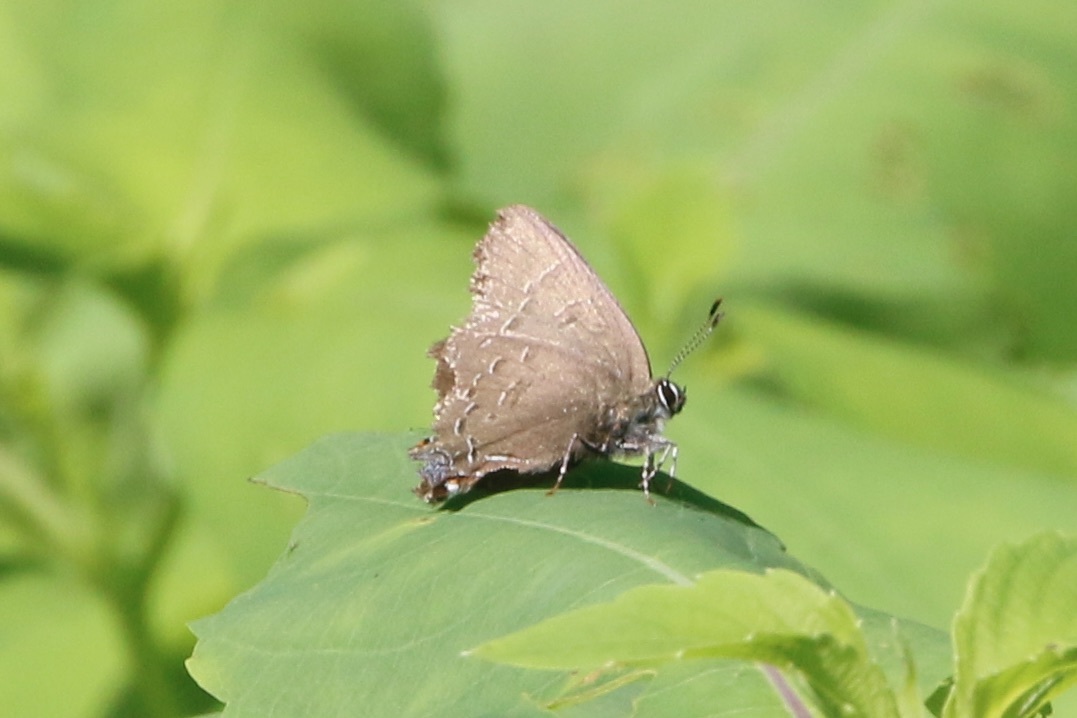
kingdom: Animalia
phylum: Arthropoda
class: Insecta
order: Lepidoptera
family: Lycaenidae
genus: Satyrium
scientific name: Satyrium calanus
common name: Banded hairstreak
